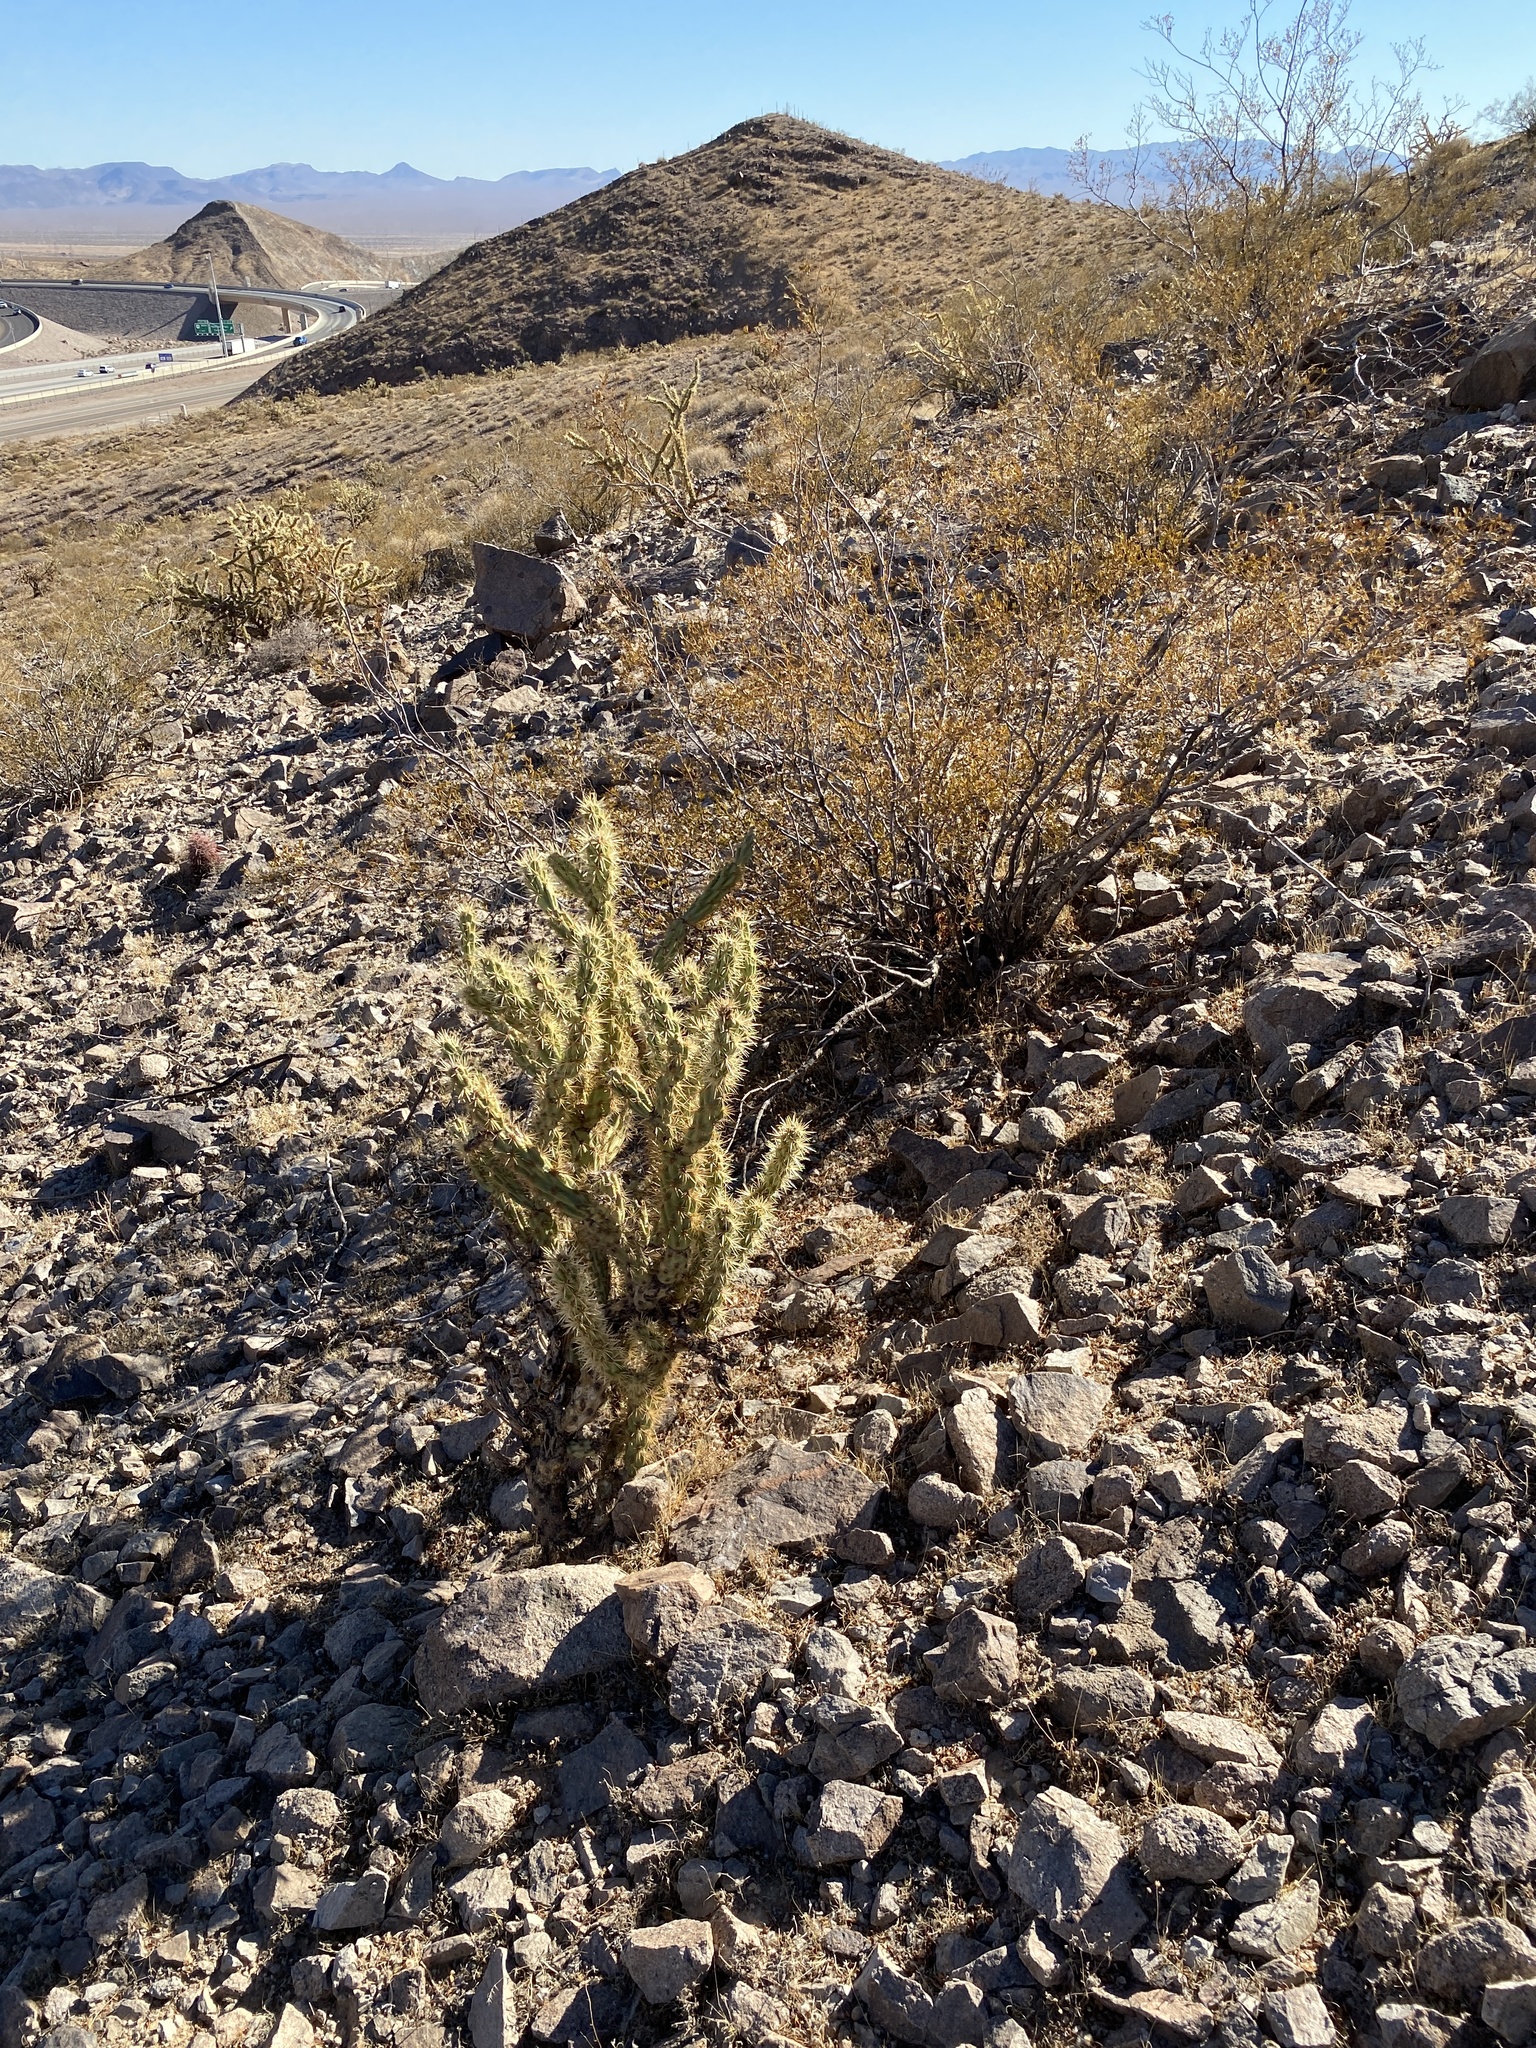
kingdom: Plantae
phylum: Tracheophyta
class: Magnoliopsida
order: Caryophyllales
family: Cactaceae
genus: Cylindropuntia
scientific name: Cylindropuntia acanthocarpa
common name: Buckhorn cholla
